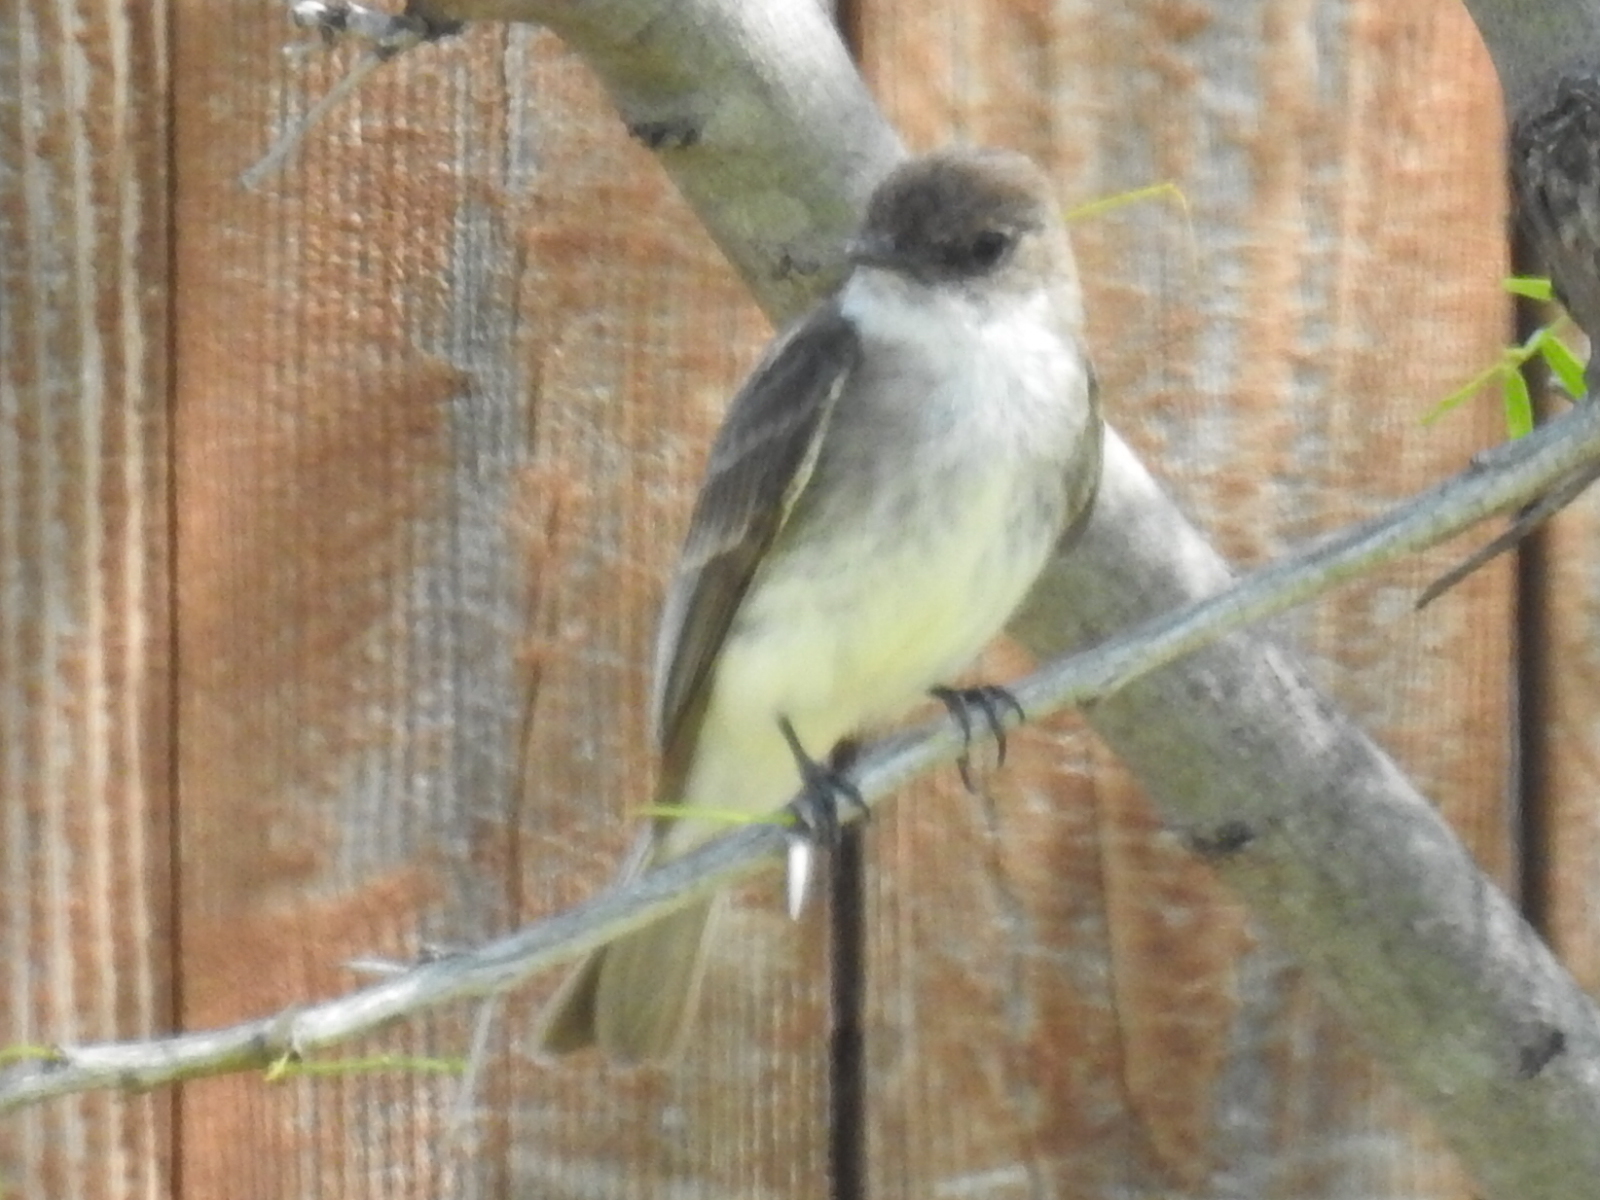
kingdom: Animalia
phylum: Chordata
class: Aves
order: Passeriformes
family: Tyrannidae
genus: Sayornis
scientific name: Sayornis phoebe
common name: Eastern phoebe
